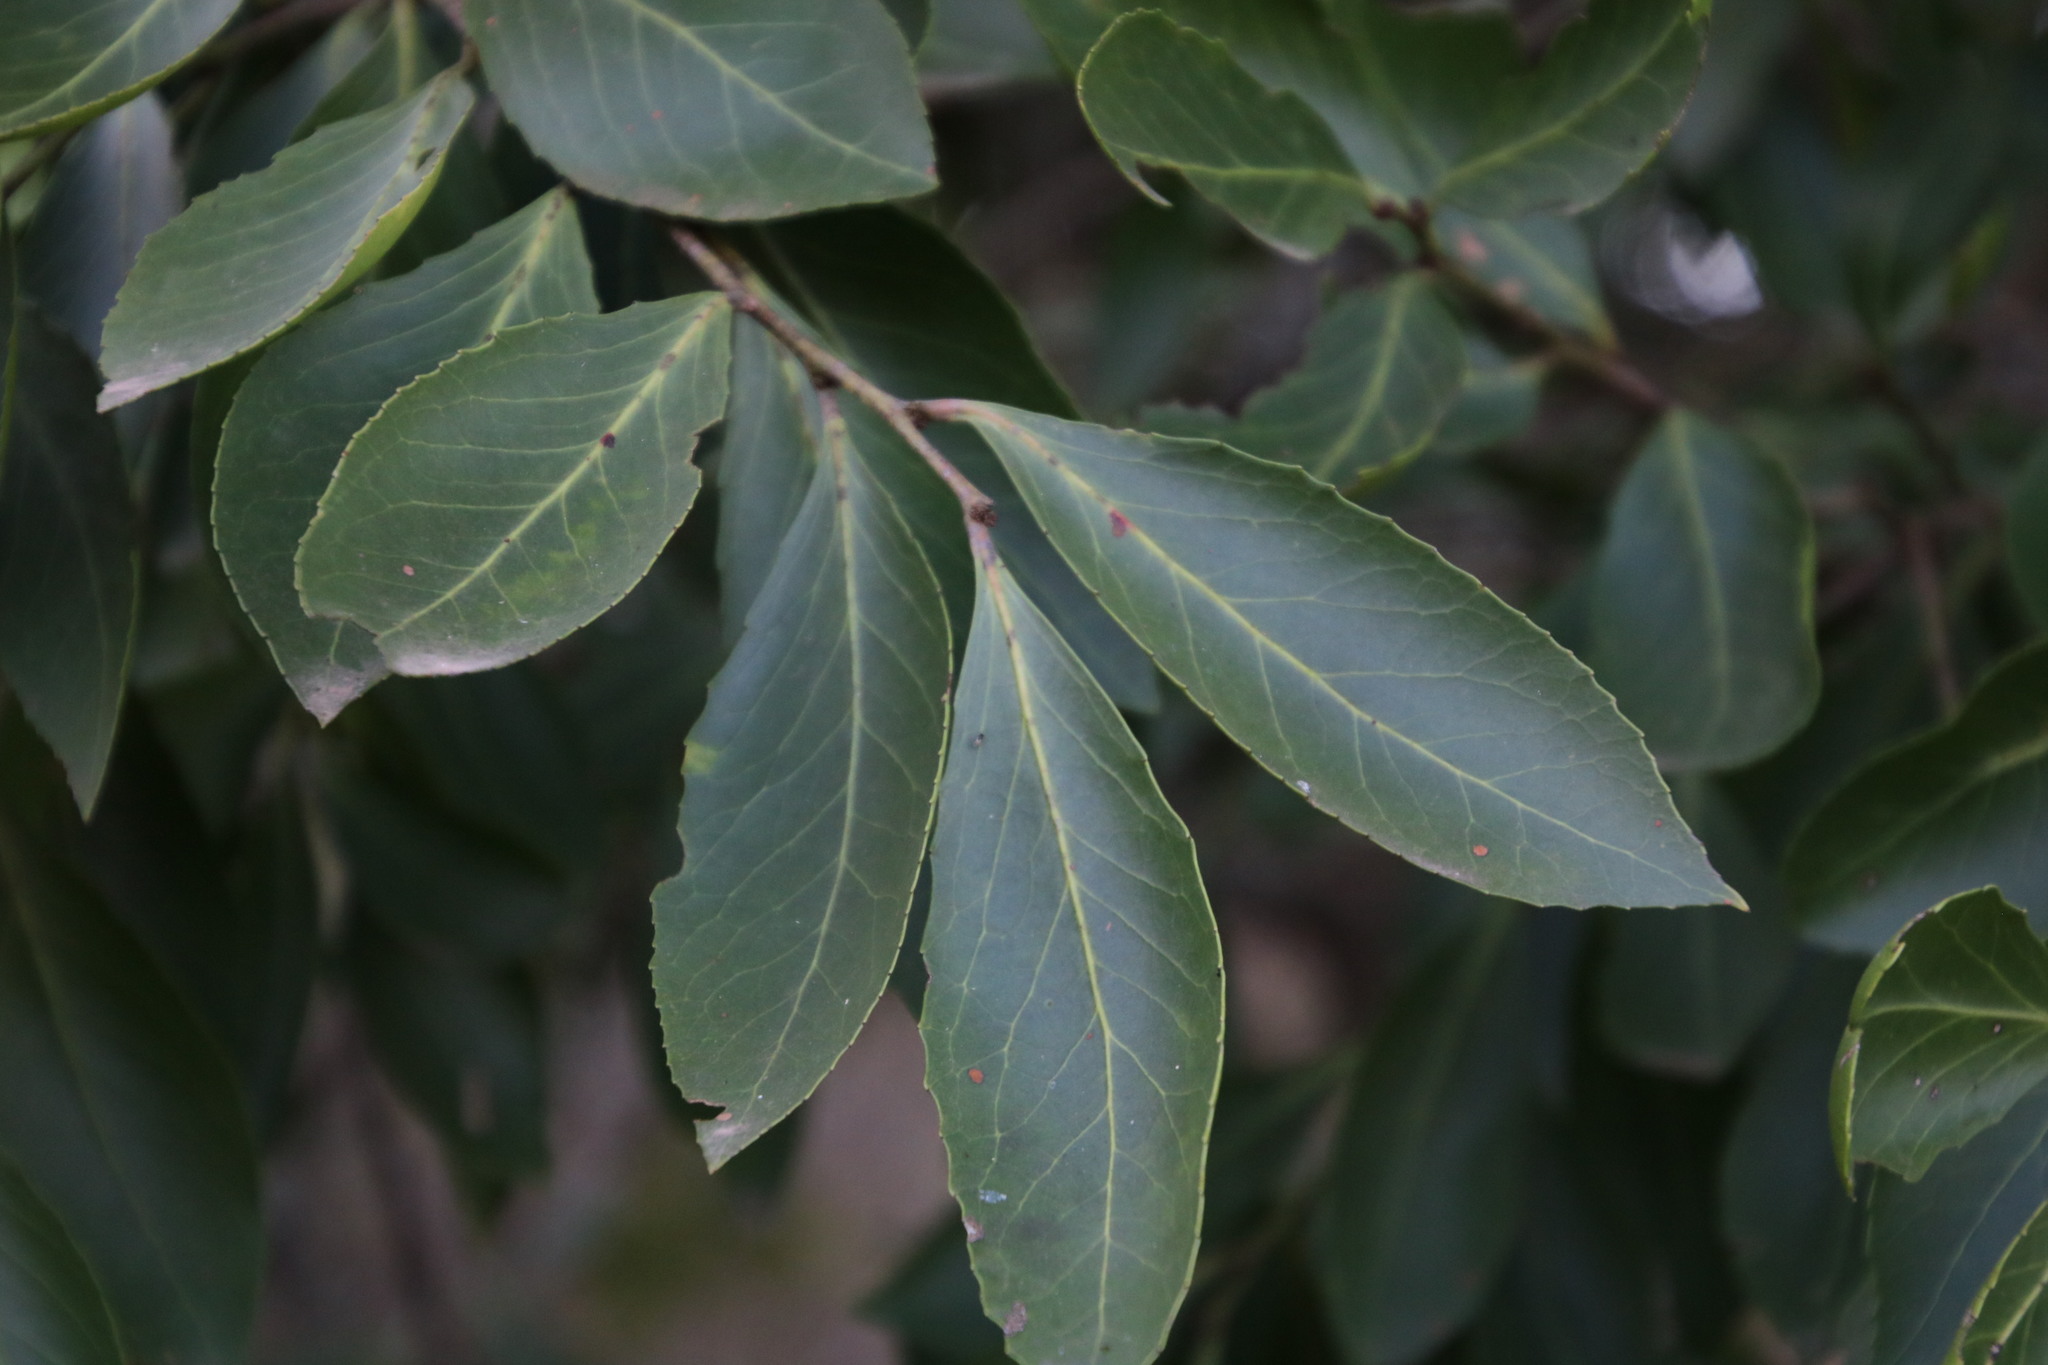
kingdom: Plantae
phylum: Tracheophyta
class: Magnoliopsida
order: Celastrales
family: Celastraceae
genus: Gymnosporia
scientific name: Gymnosporia undata
